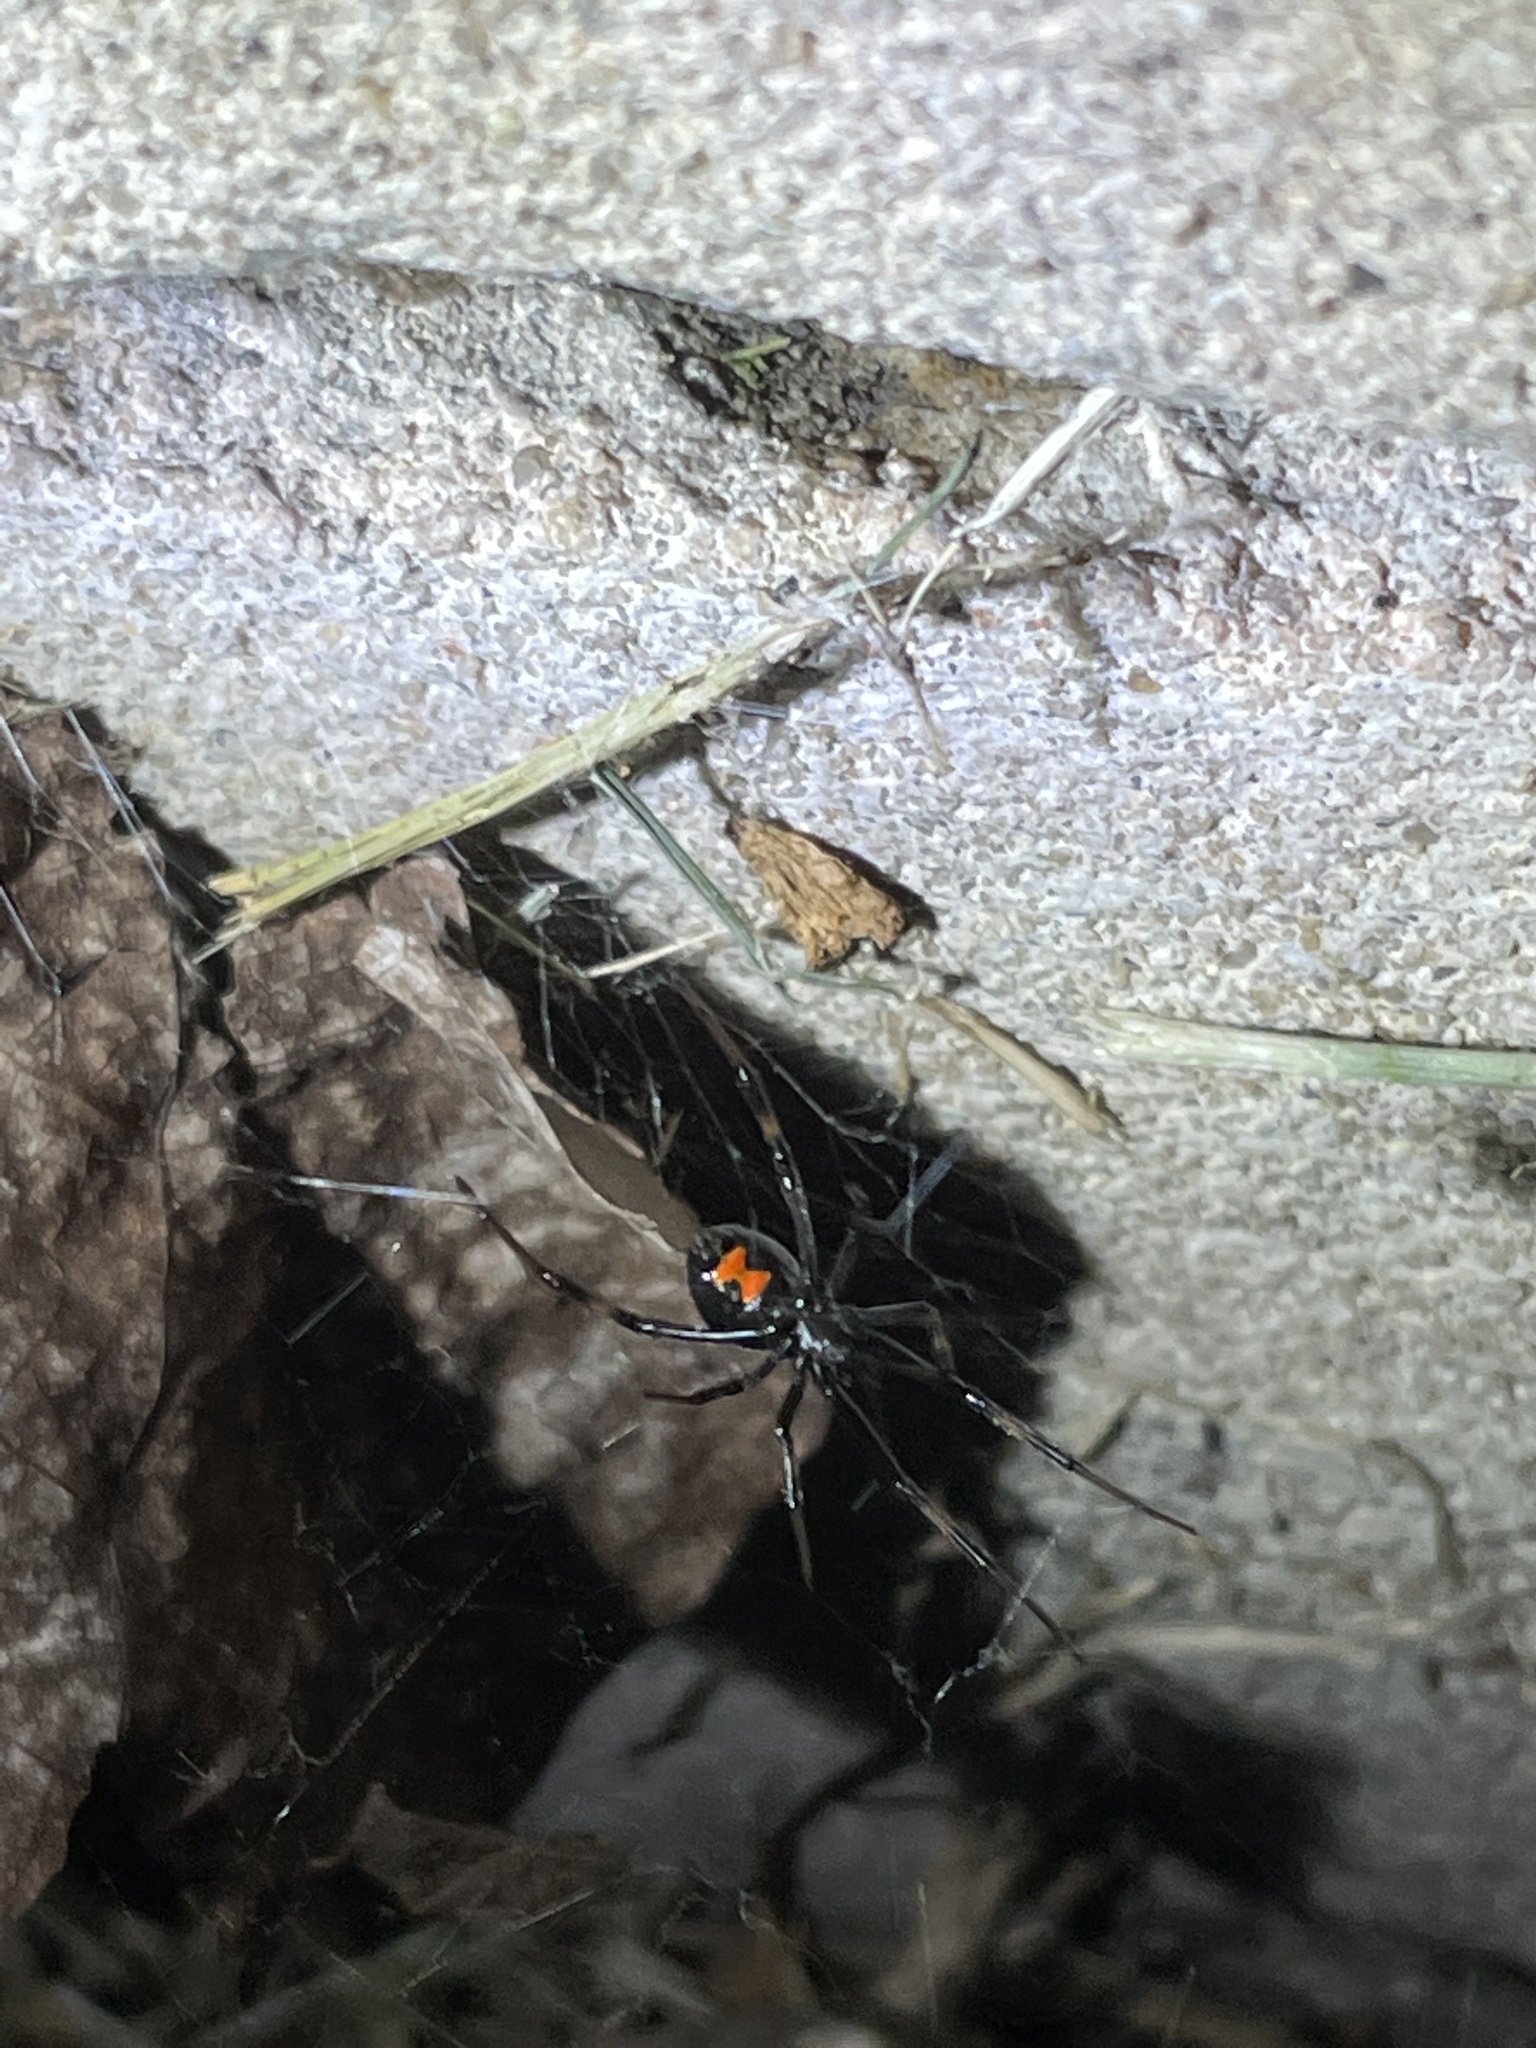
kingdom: Animalia
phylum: Arthropoda
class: Arachnida
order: Araneae
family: Theridiidae
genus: Latrodectus
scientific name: Latrodectus mactans
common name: Cobweb spiders
